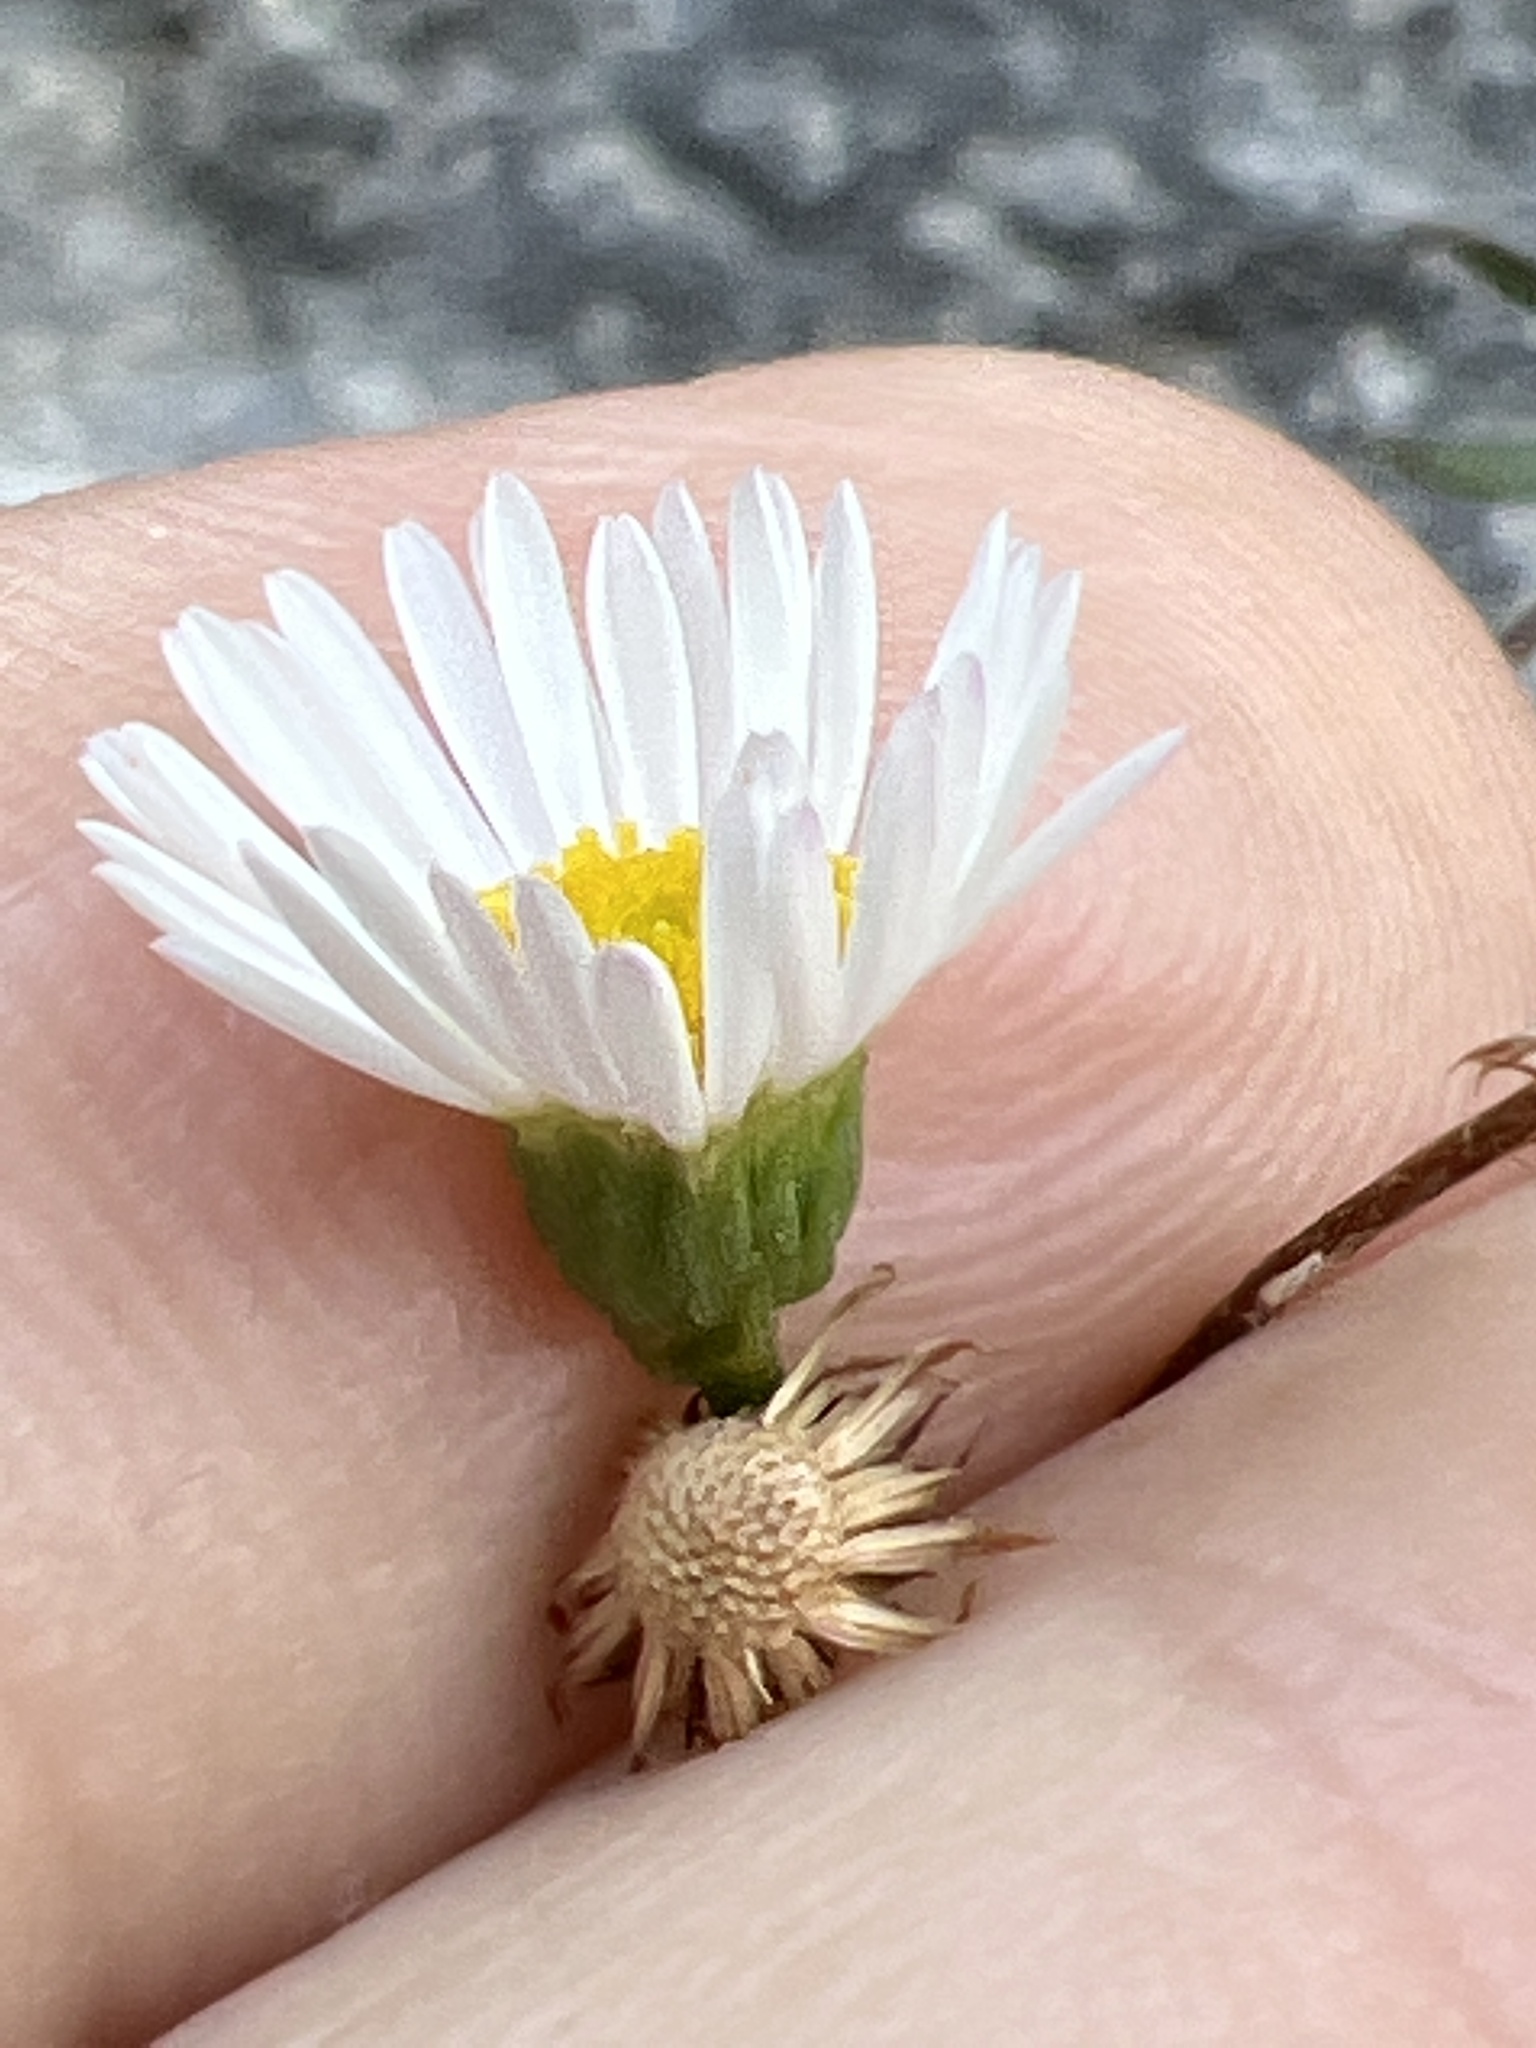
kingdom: Plantae
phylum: Tracheophyta
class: Magnoliopsida
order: Asterales
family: Asteraceae
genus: Erigeron
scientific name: Erigeron karvinskianus
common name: Mexican fleabane
